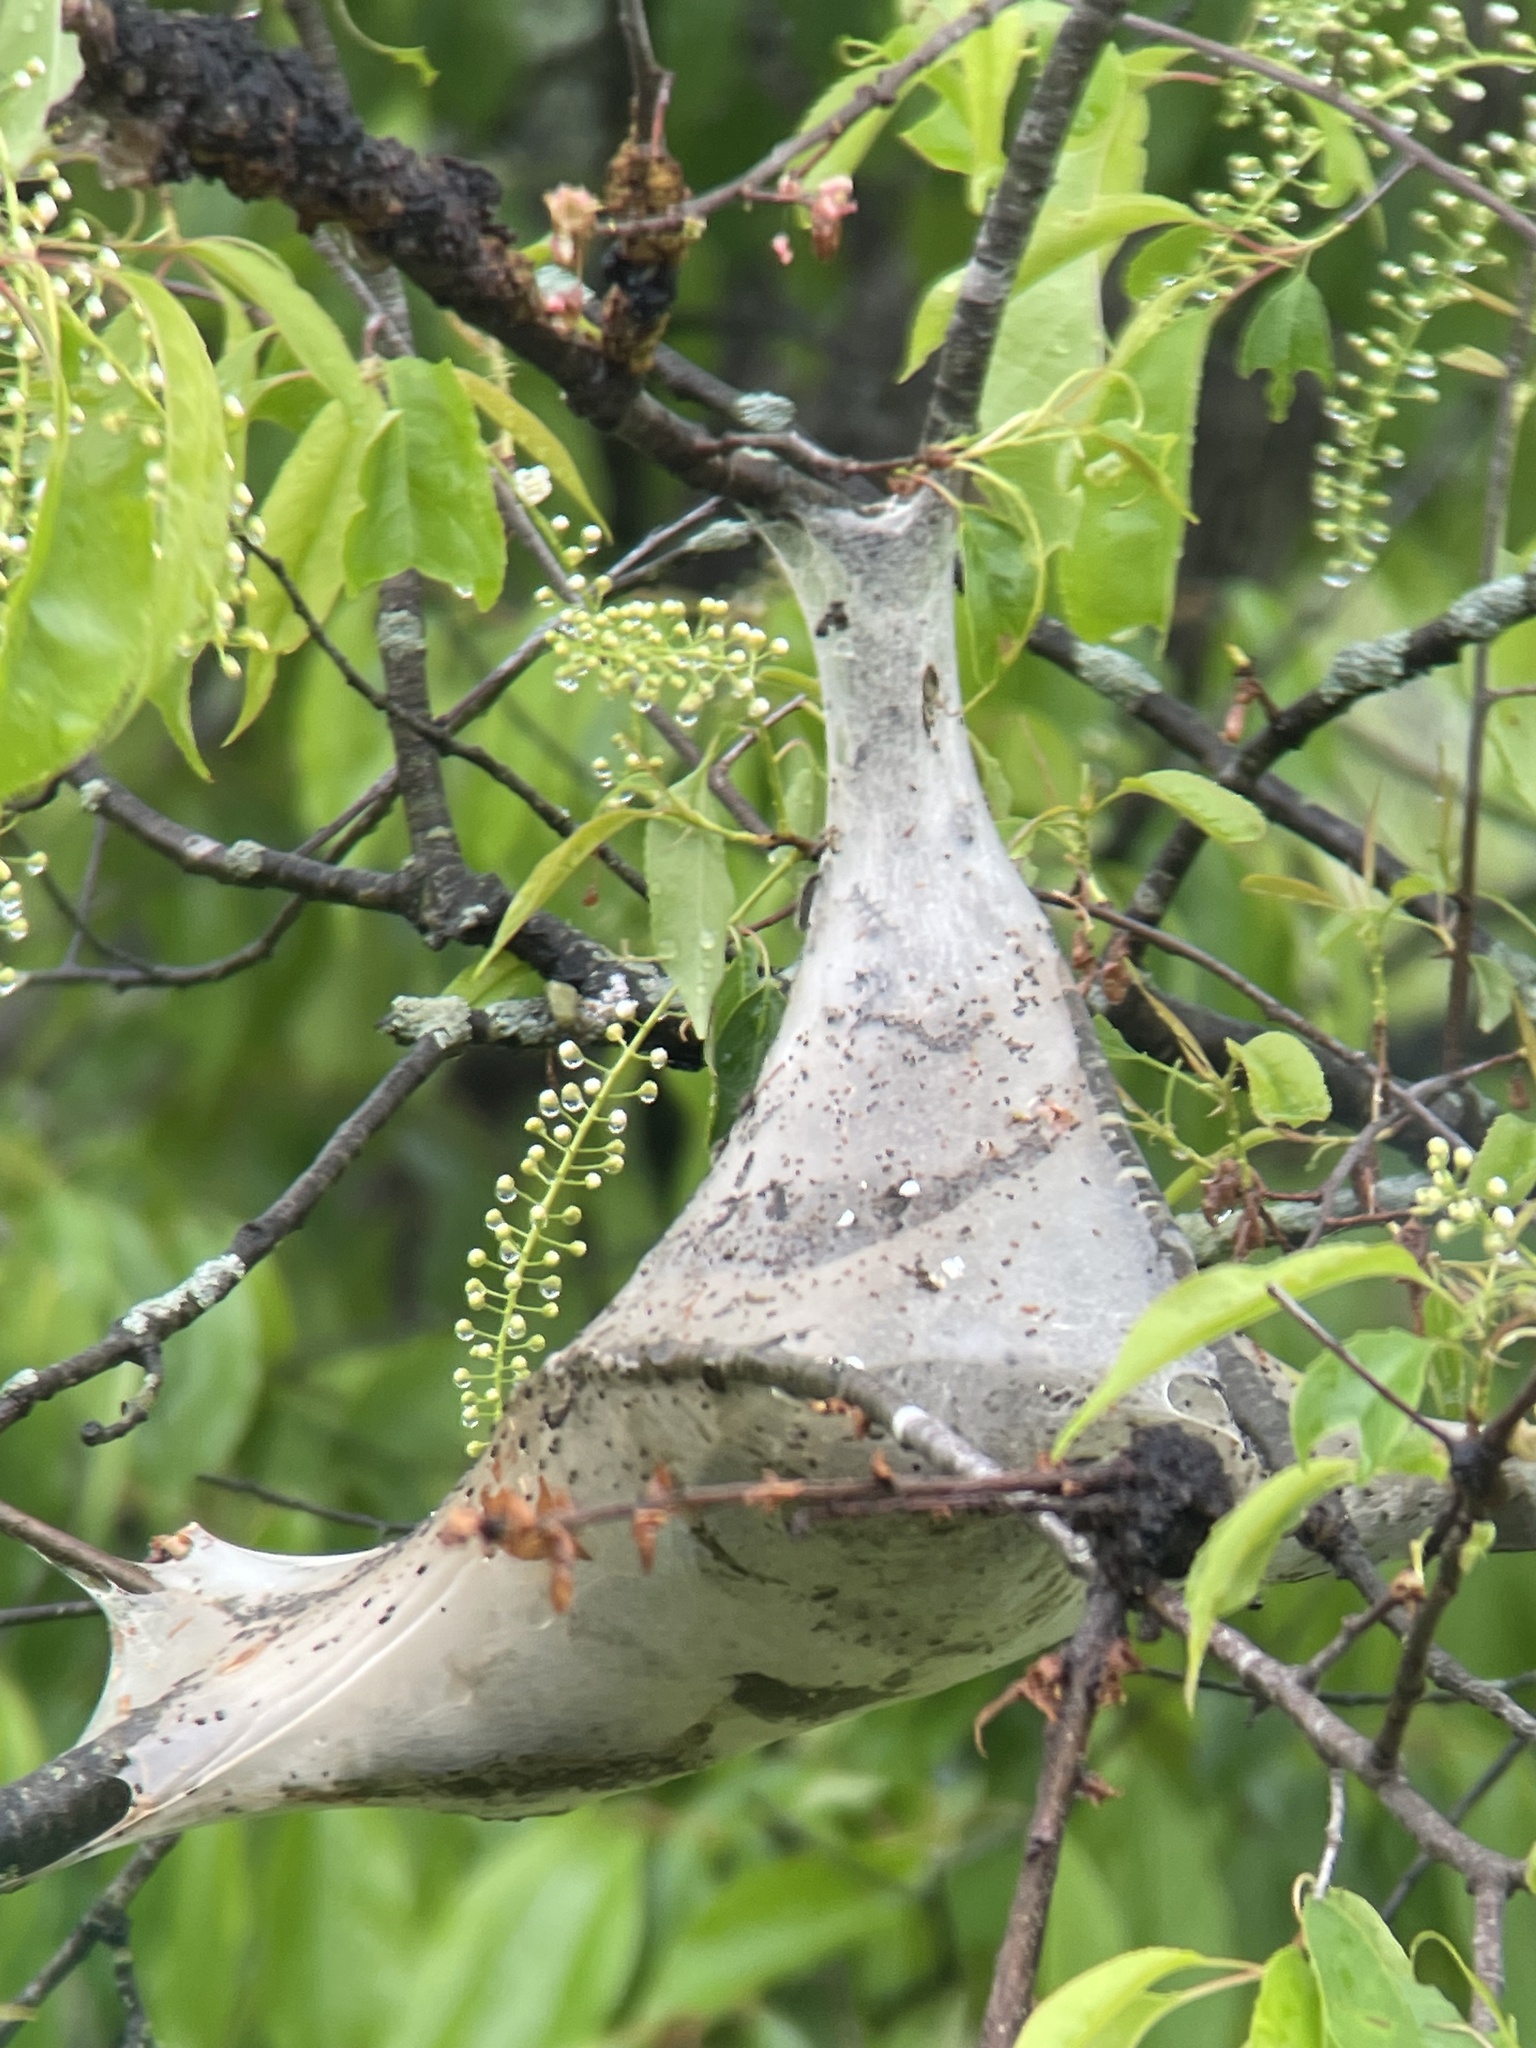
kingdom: Animalia
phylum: Arthropoda
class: Insecta
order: Lepidoptera
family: Lasiocampidae
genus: Malacosoma
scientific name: Malacosoma americana
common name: Eastern tent caterpillar moth
